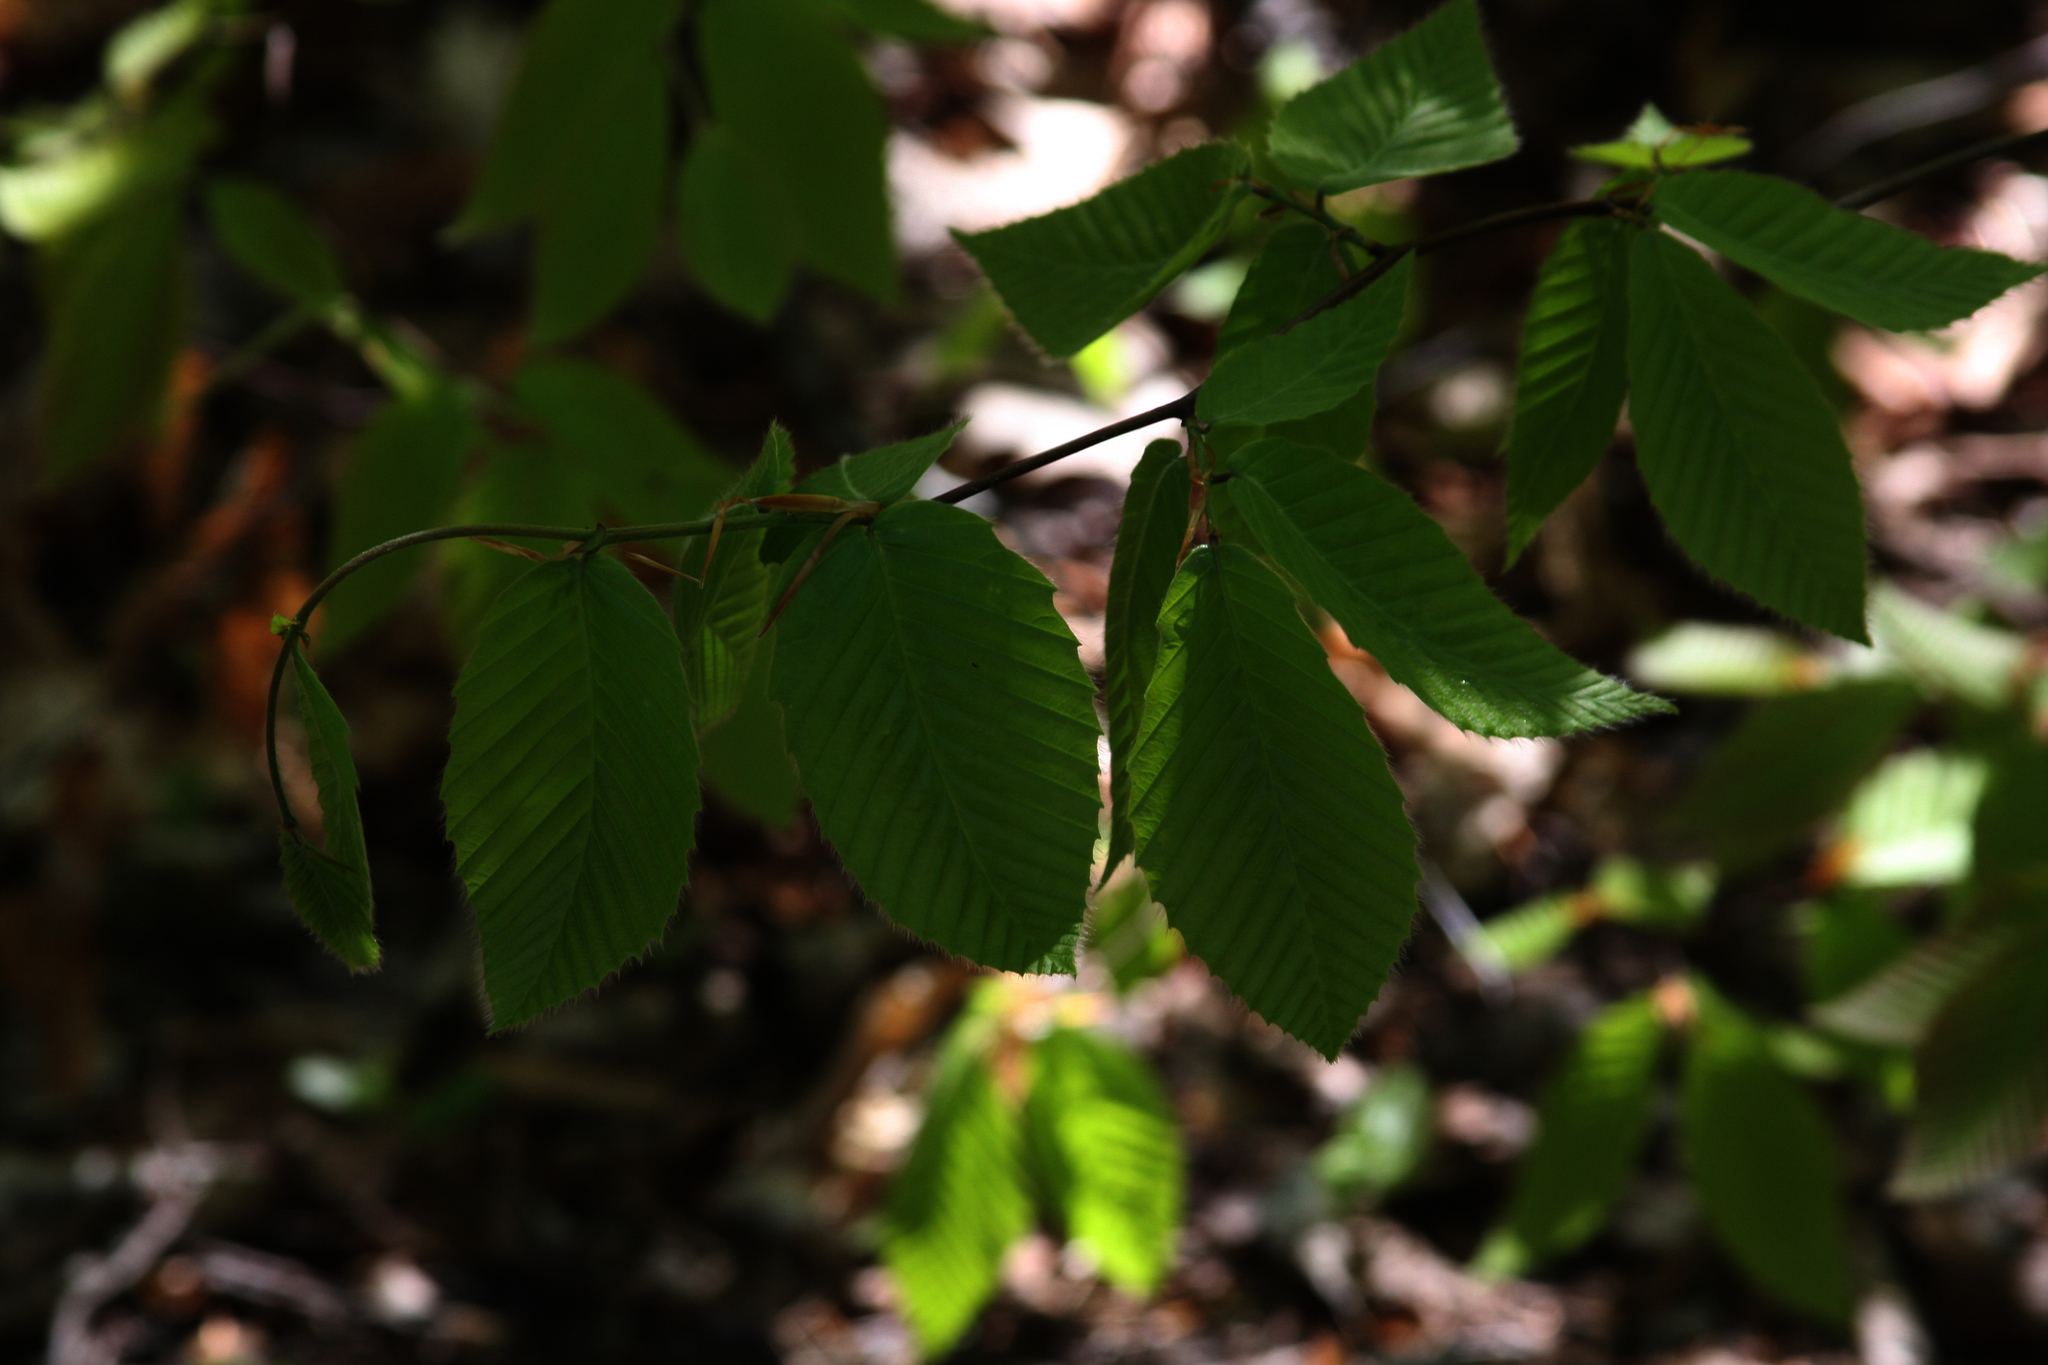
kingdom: Plantae
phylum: Tracheophyta
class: Magnoliopsida
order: Fagales
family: Fagaceae
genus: Fagus
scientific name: Fagus grandifolia
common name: American beech
